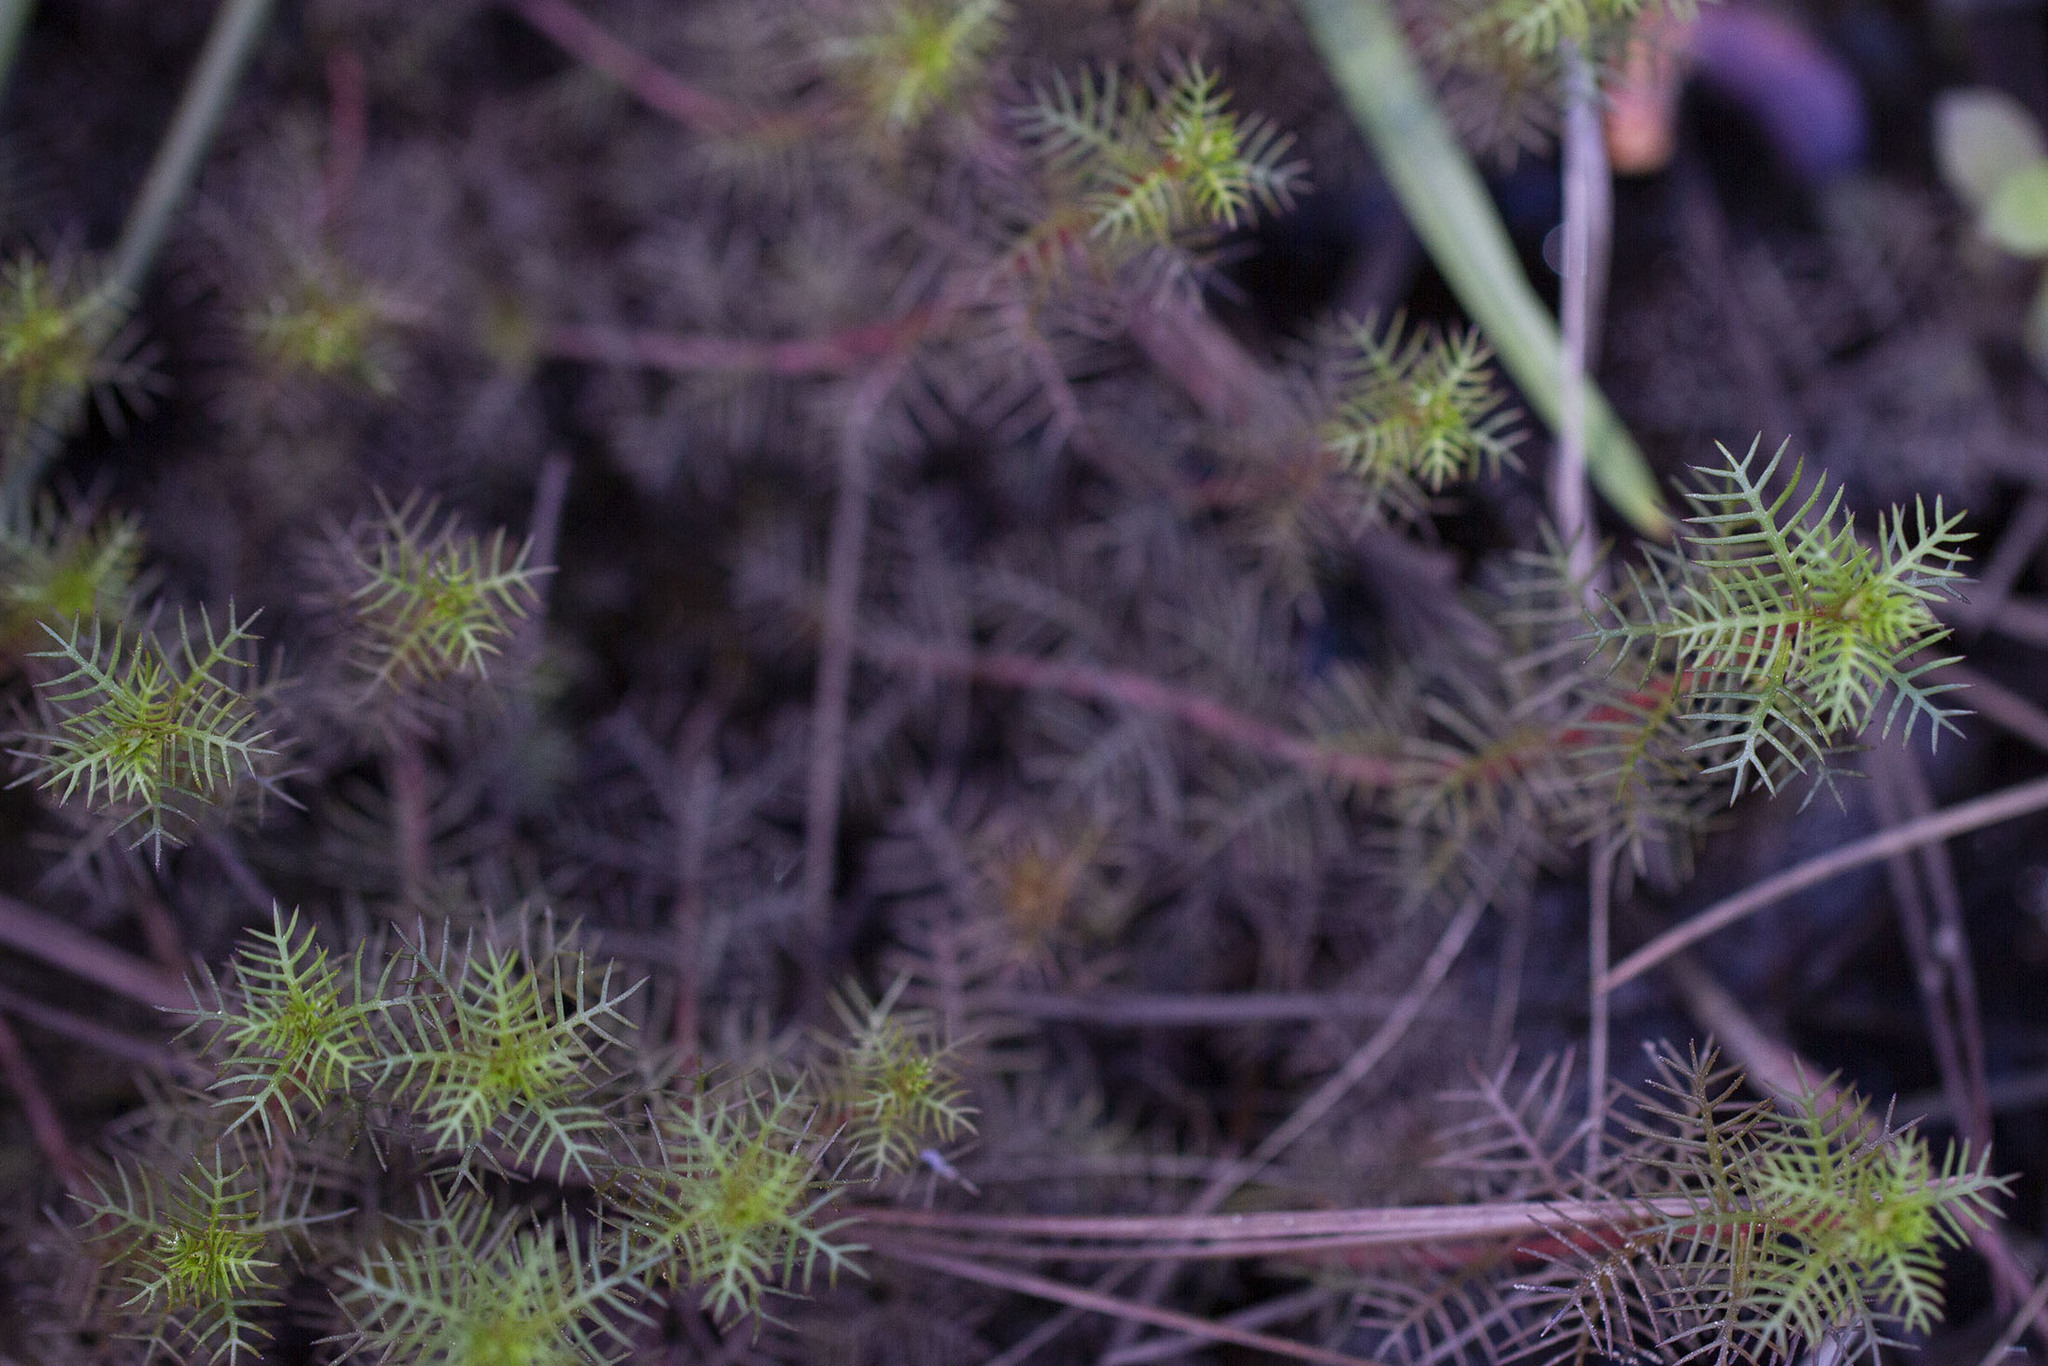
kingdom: Plantae
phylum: Tracheophyta
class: Magnoliopsida
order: Saxifragales
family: Haloragaceae
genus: Proserpinaca
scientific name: Proserpinaca pectinata
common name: Comb-leaved mermaidweed
